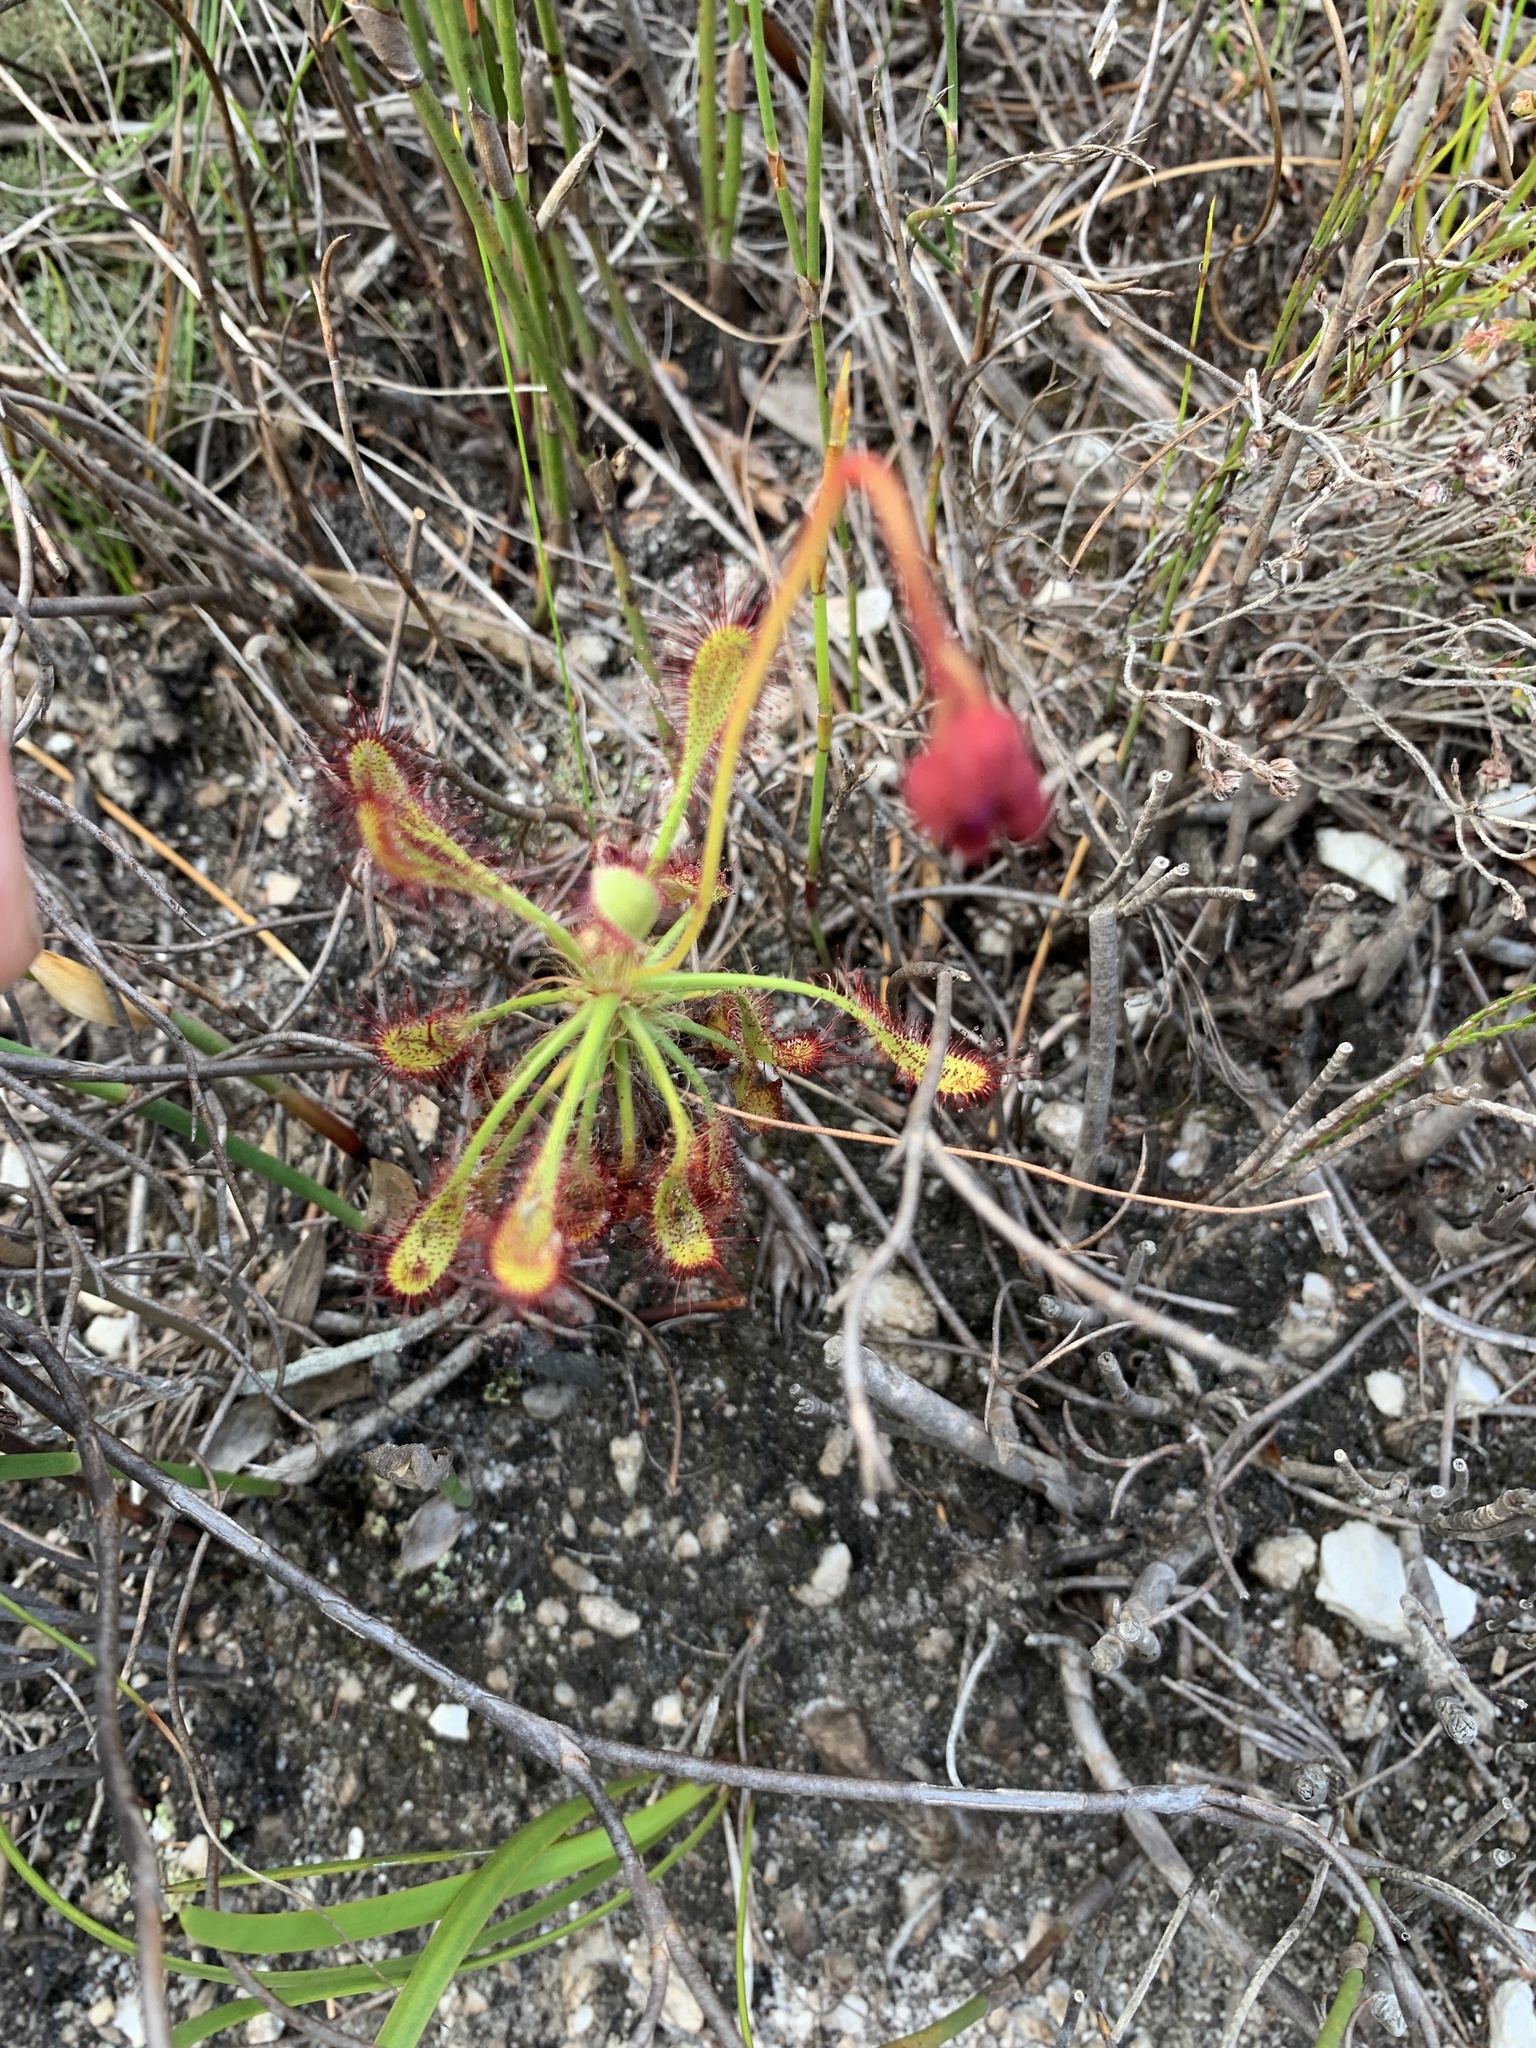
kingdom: Plantae
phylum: Tracheophyta
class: Magnoliopsida
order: Caryophyllales
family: Droseraceae
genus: Drosera
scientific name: Drosera glabripes
